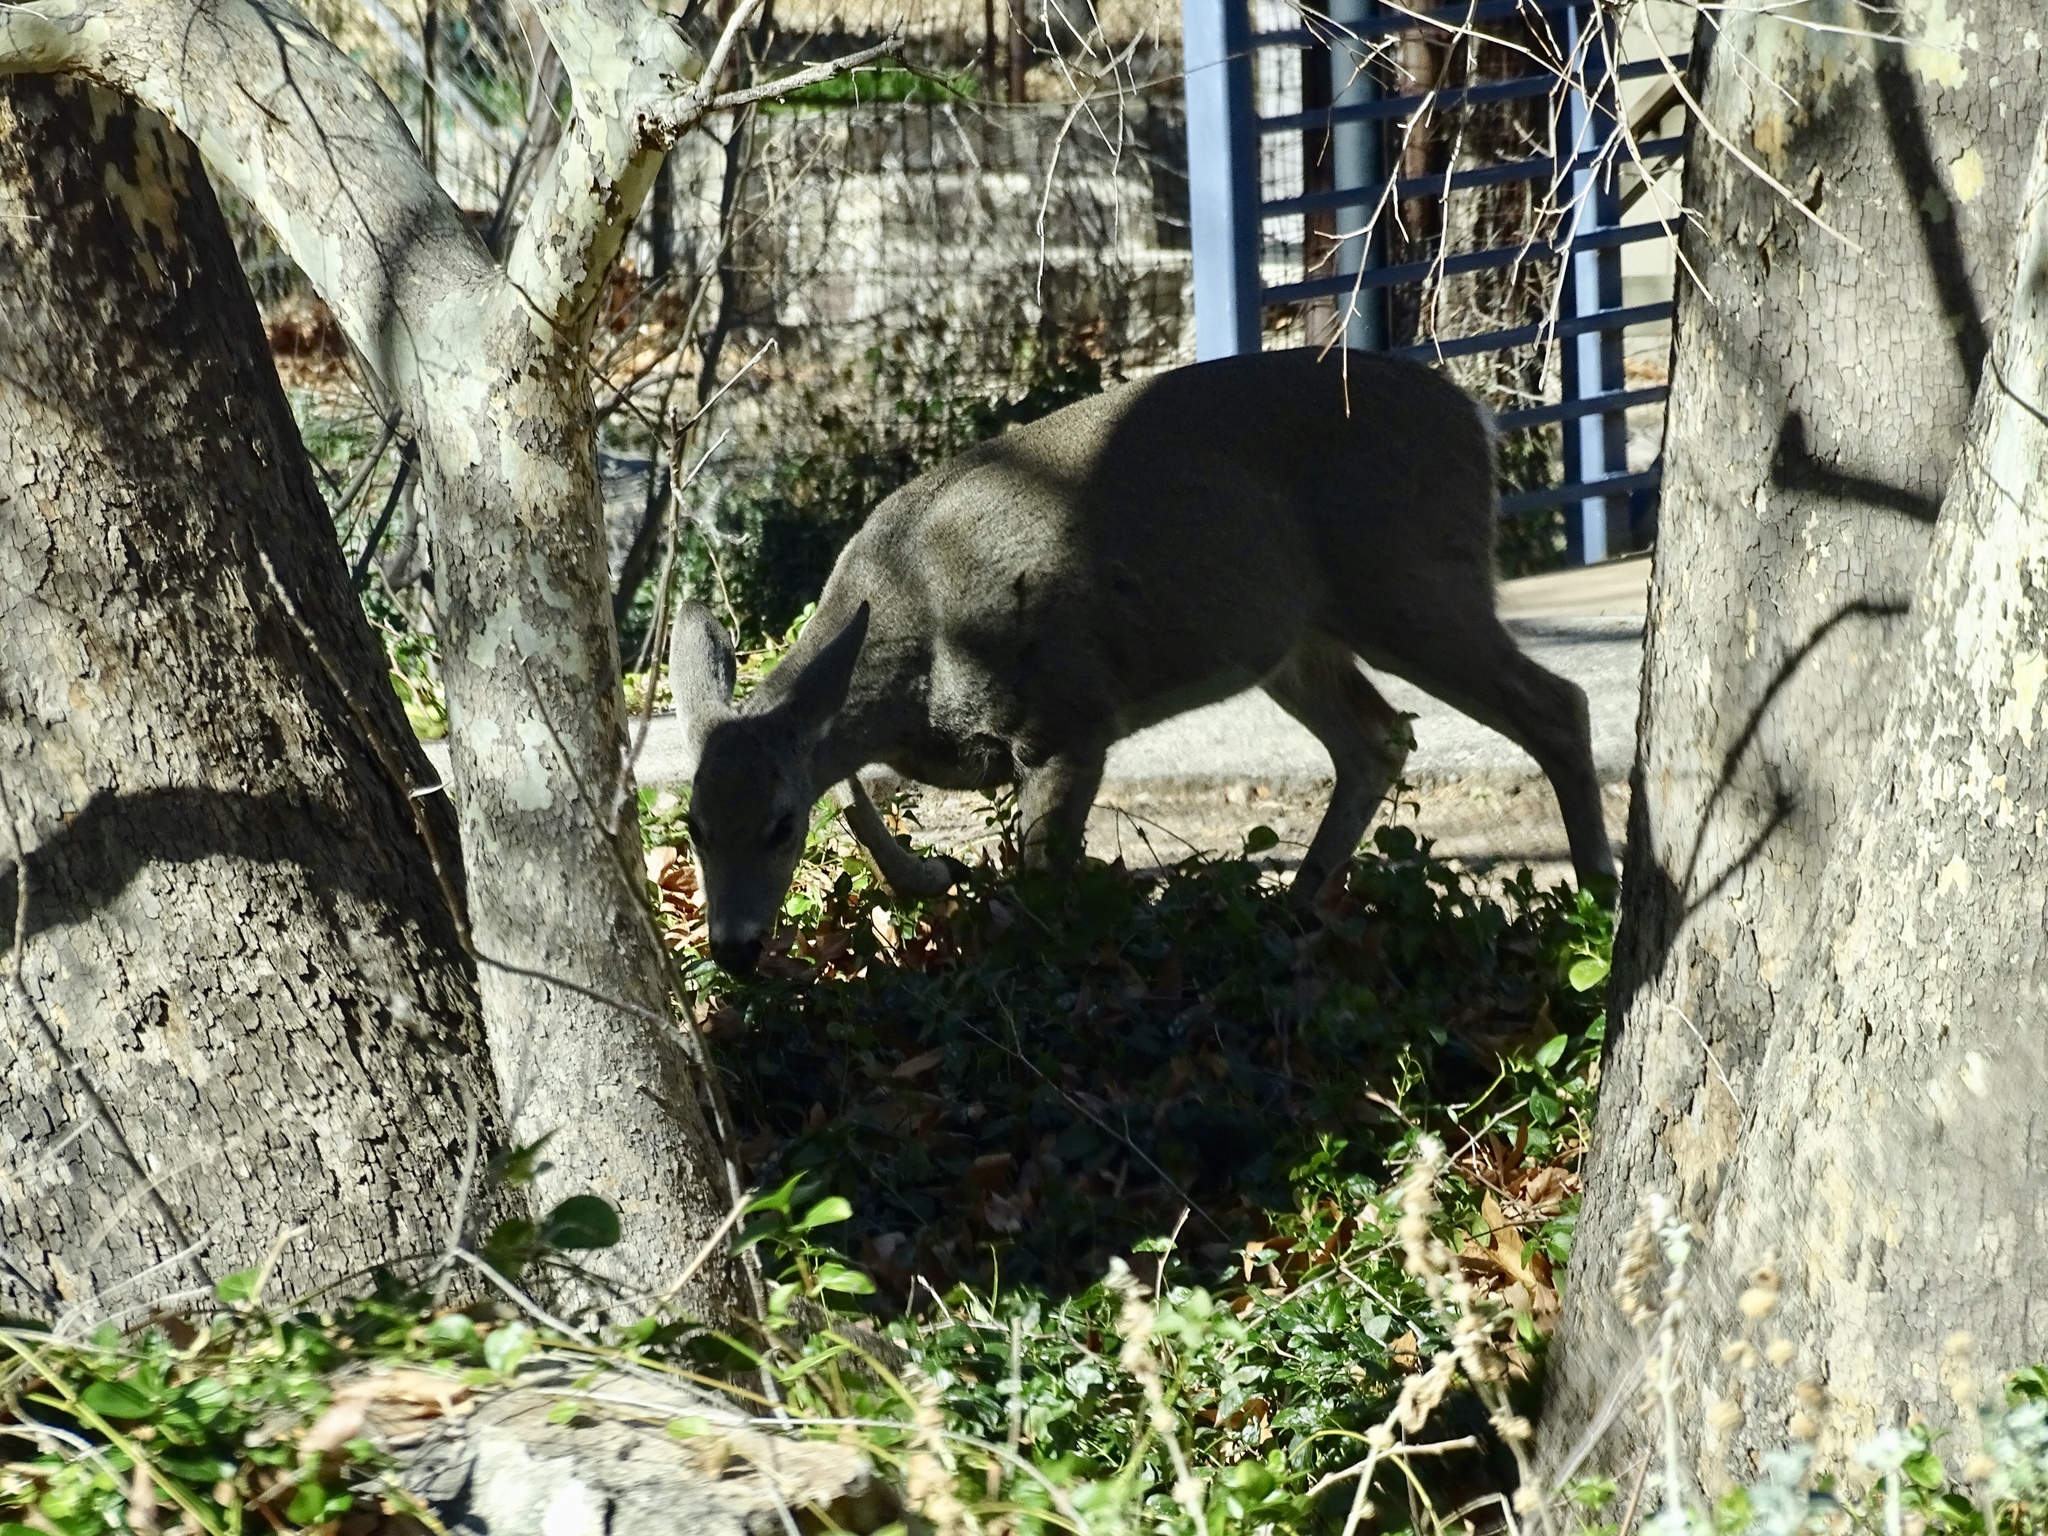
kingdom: Animalia
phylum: Chordata
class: Mammalia
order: Artiodactyla
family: Cervidae
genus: Odocoileus
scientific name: Odocoileus virginianus
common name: White-tailed deer
